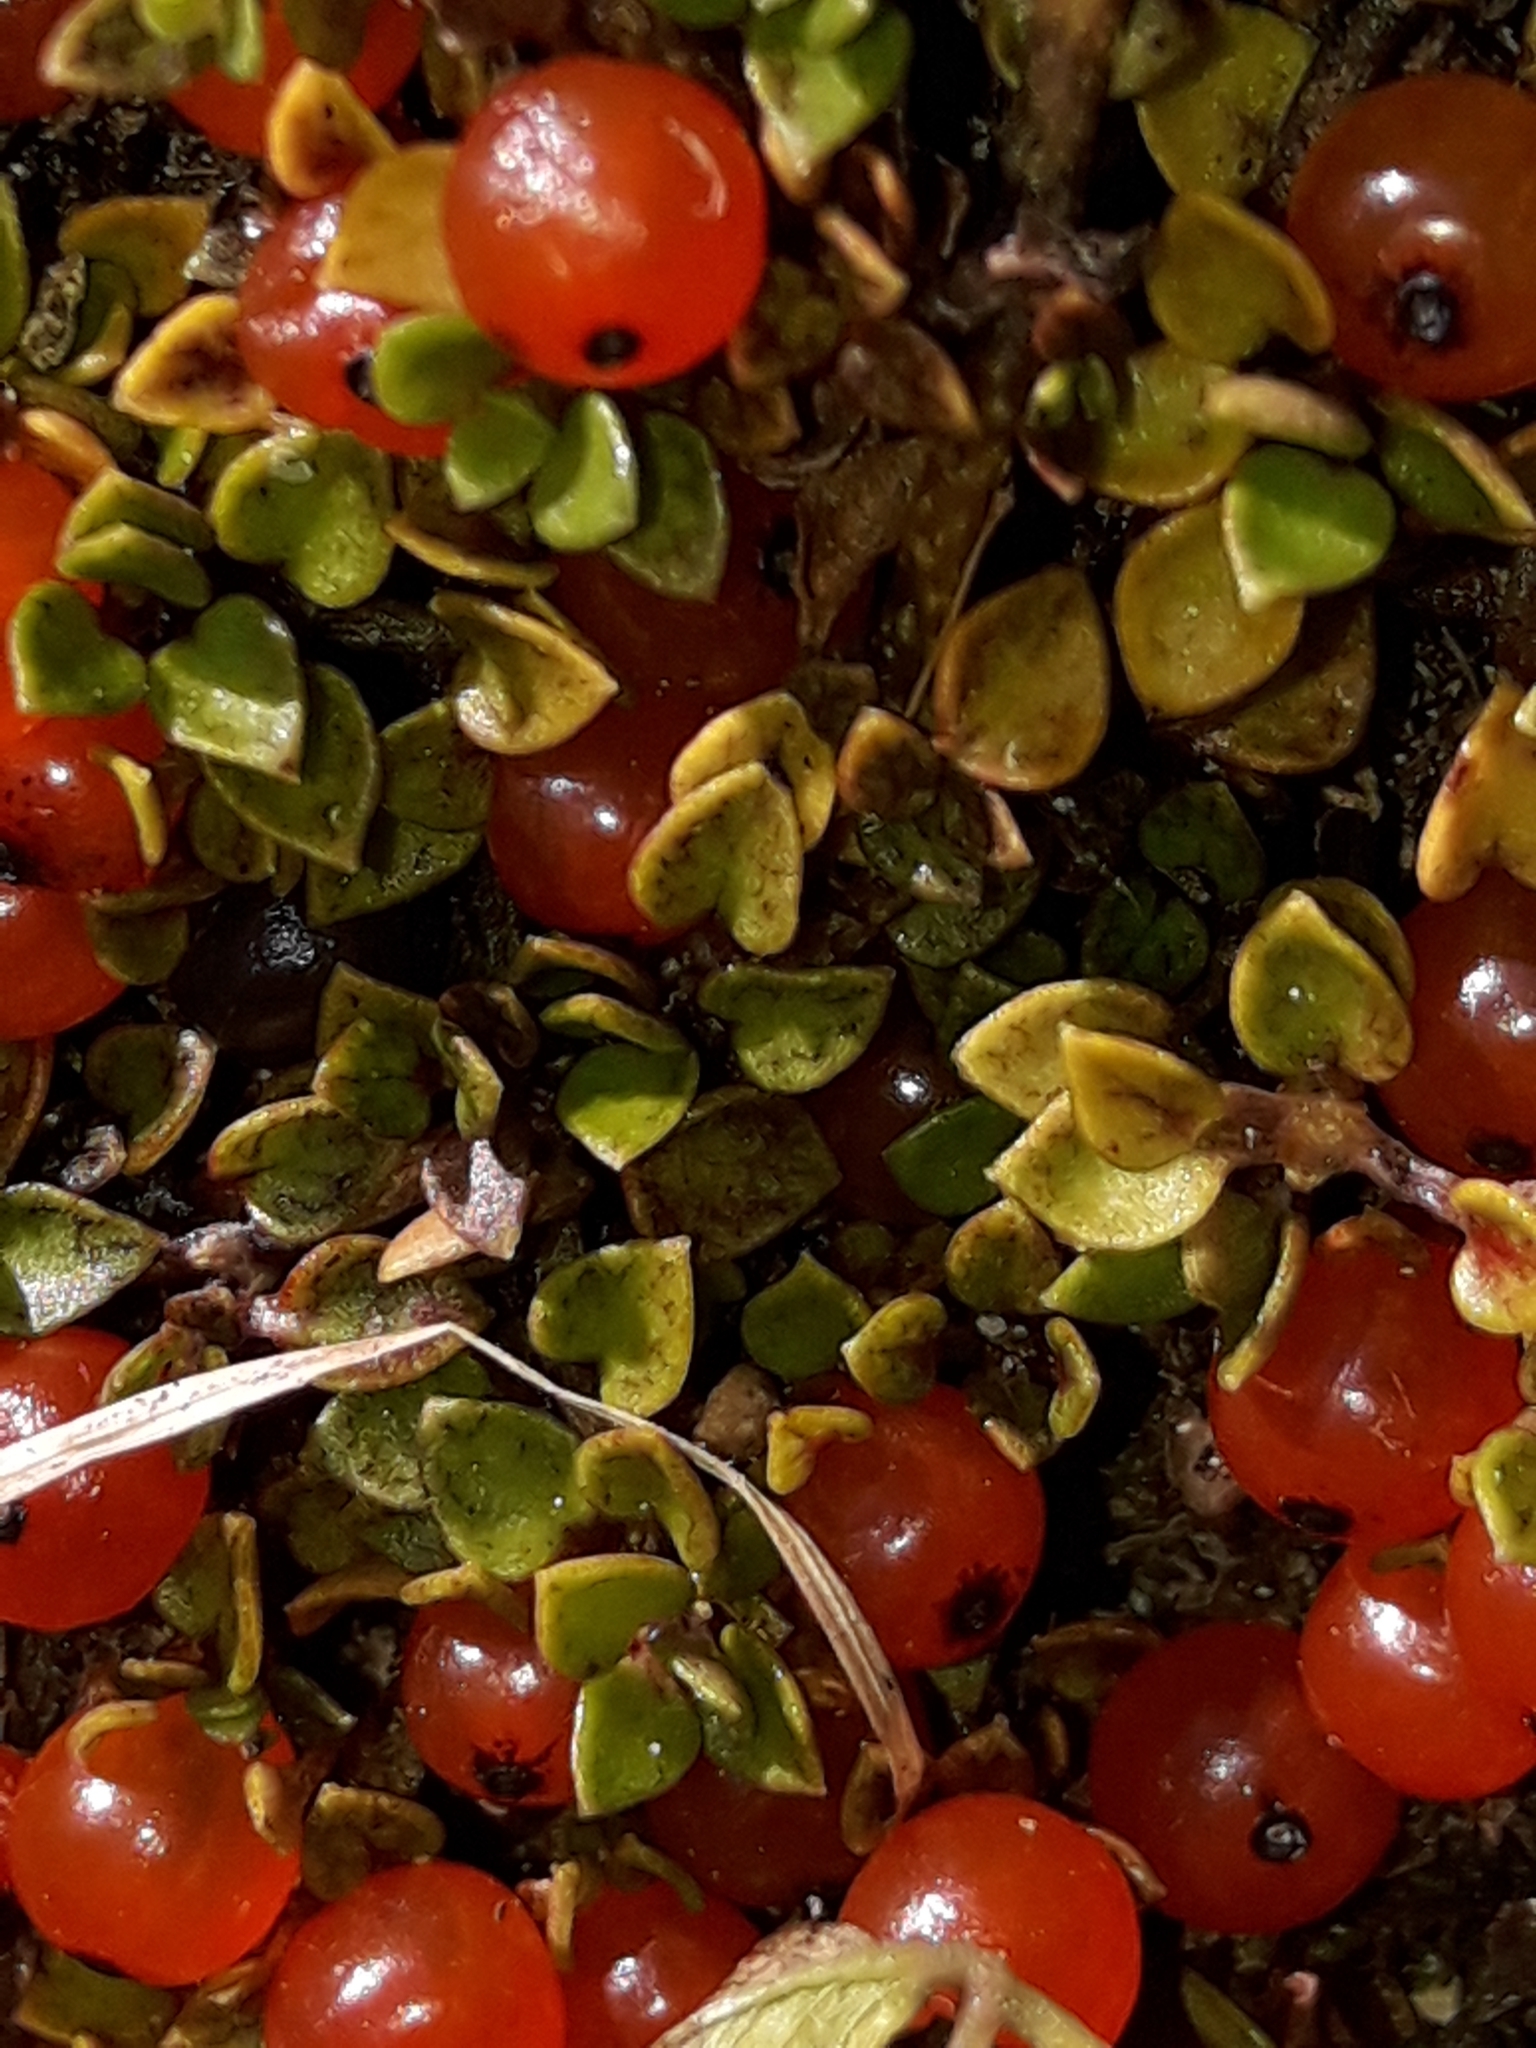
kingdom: Plantae
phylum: Tracheophyta
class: Magnoliopsida
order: Gentianales
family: Rubiaceae
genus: Nertera
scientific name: Nertera granadensis
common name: Beadplant
